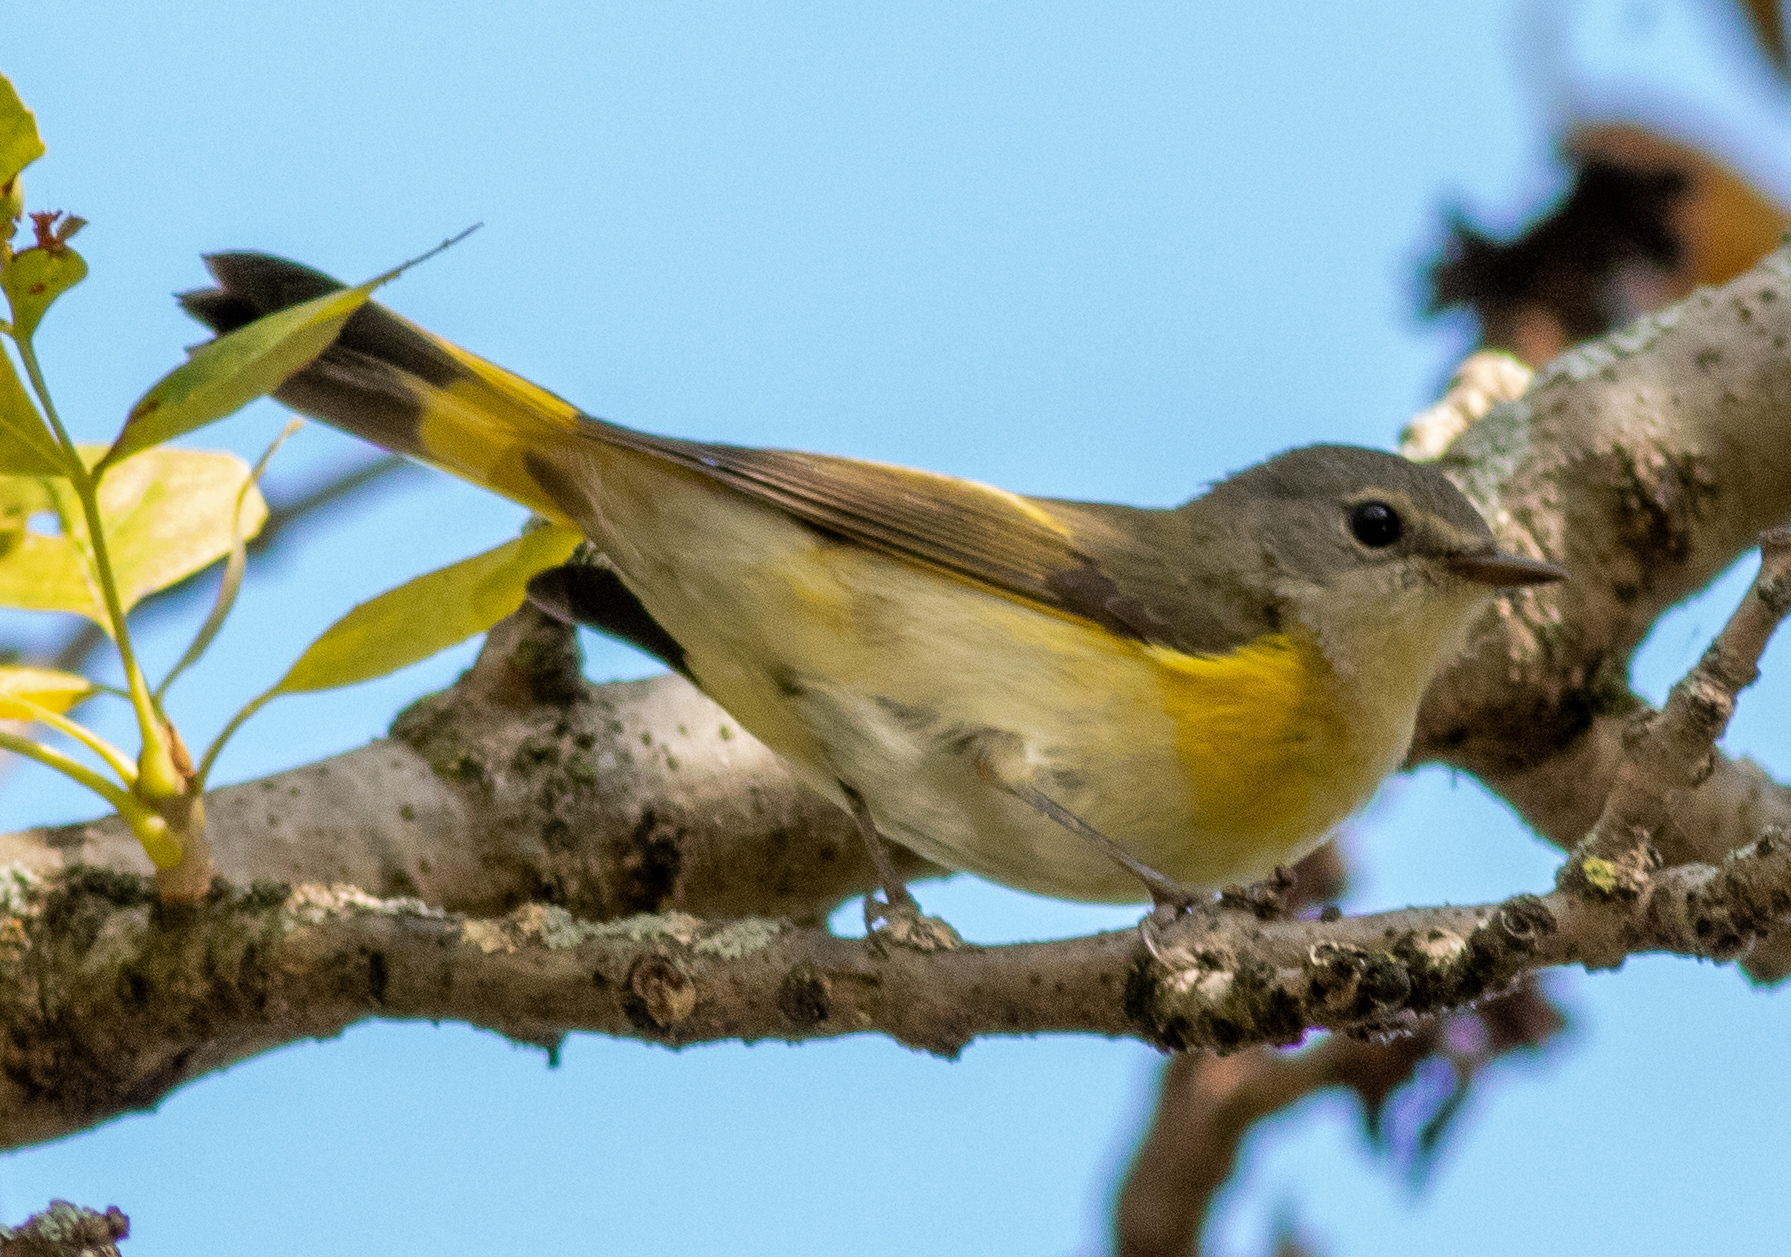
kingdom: Animalia
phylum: Chordata
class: Aves
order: Passeriformes
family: Parulidae
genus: Setophaga
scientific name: Setophaga ruticilla
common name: American redstart
